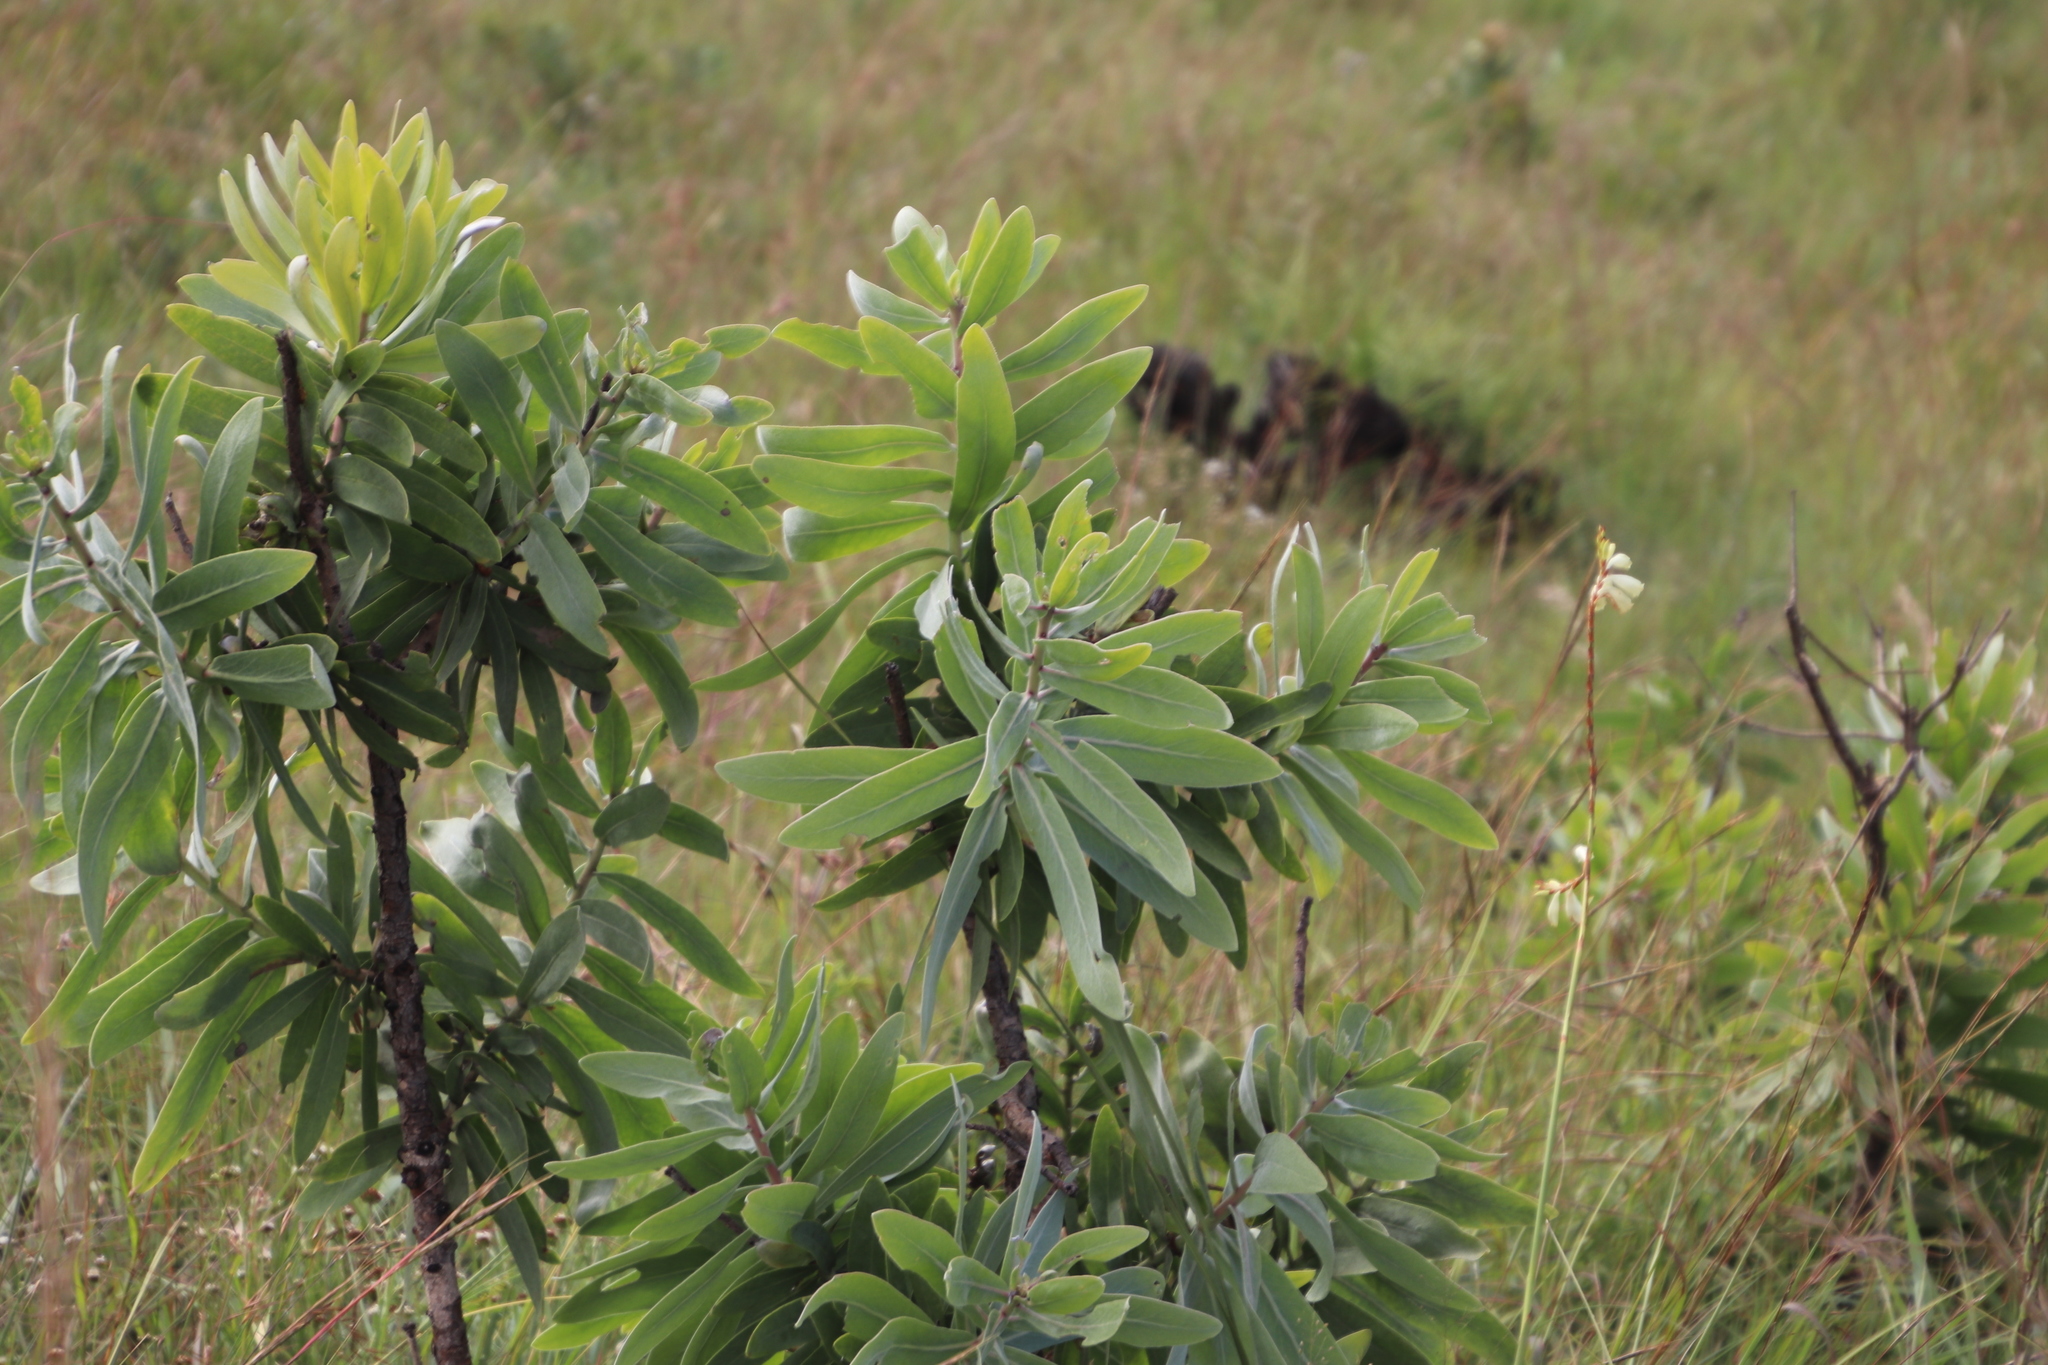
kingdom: Plantae
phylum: Tracheophyta
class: Magnoliopsida
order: Proteales
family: Proteaceae
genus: Protea
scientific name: Protea caffra
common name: Common sugarbush
